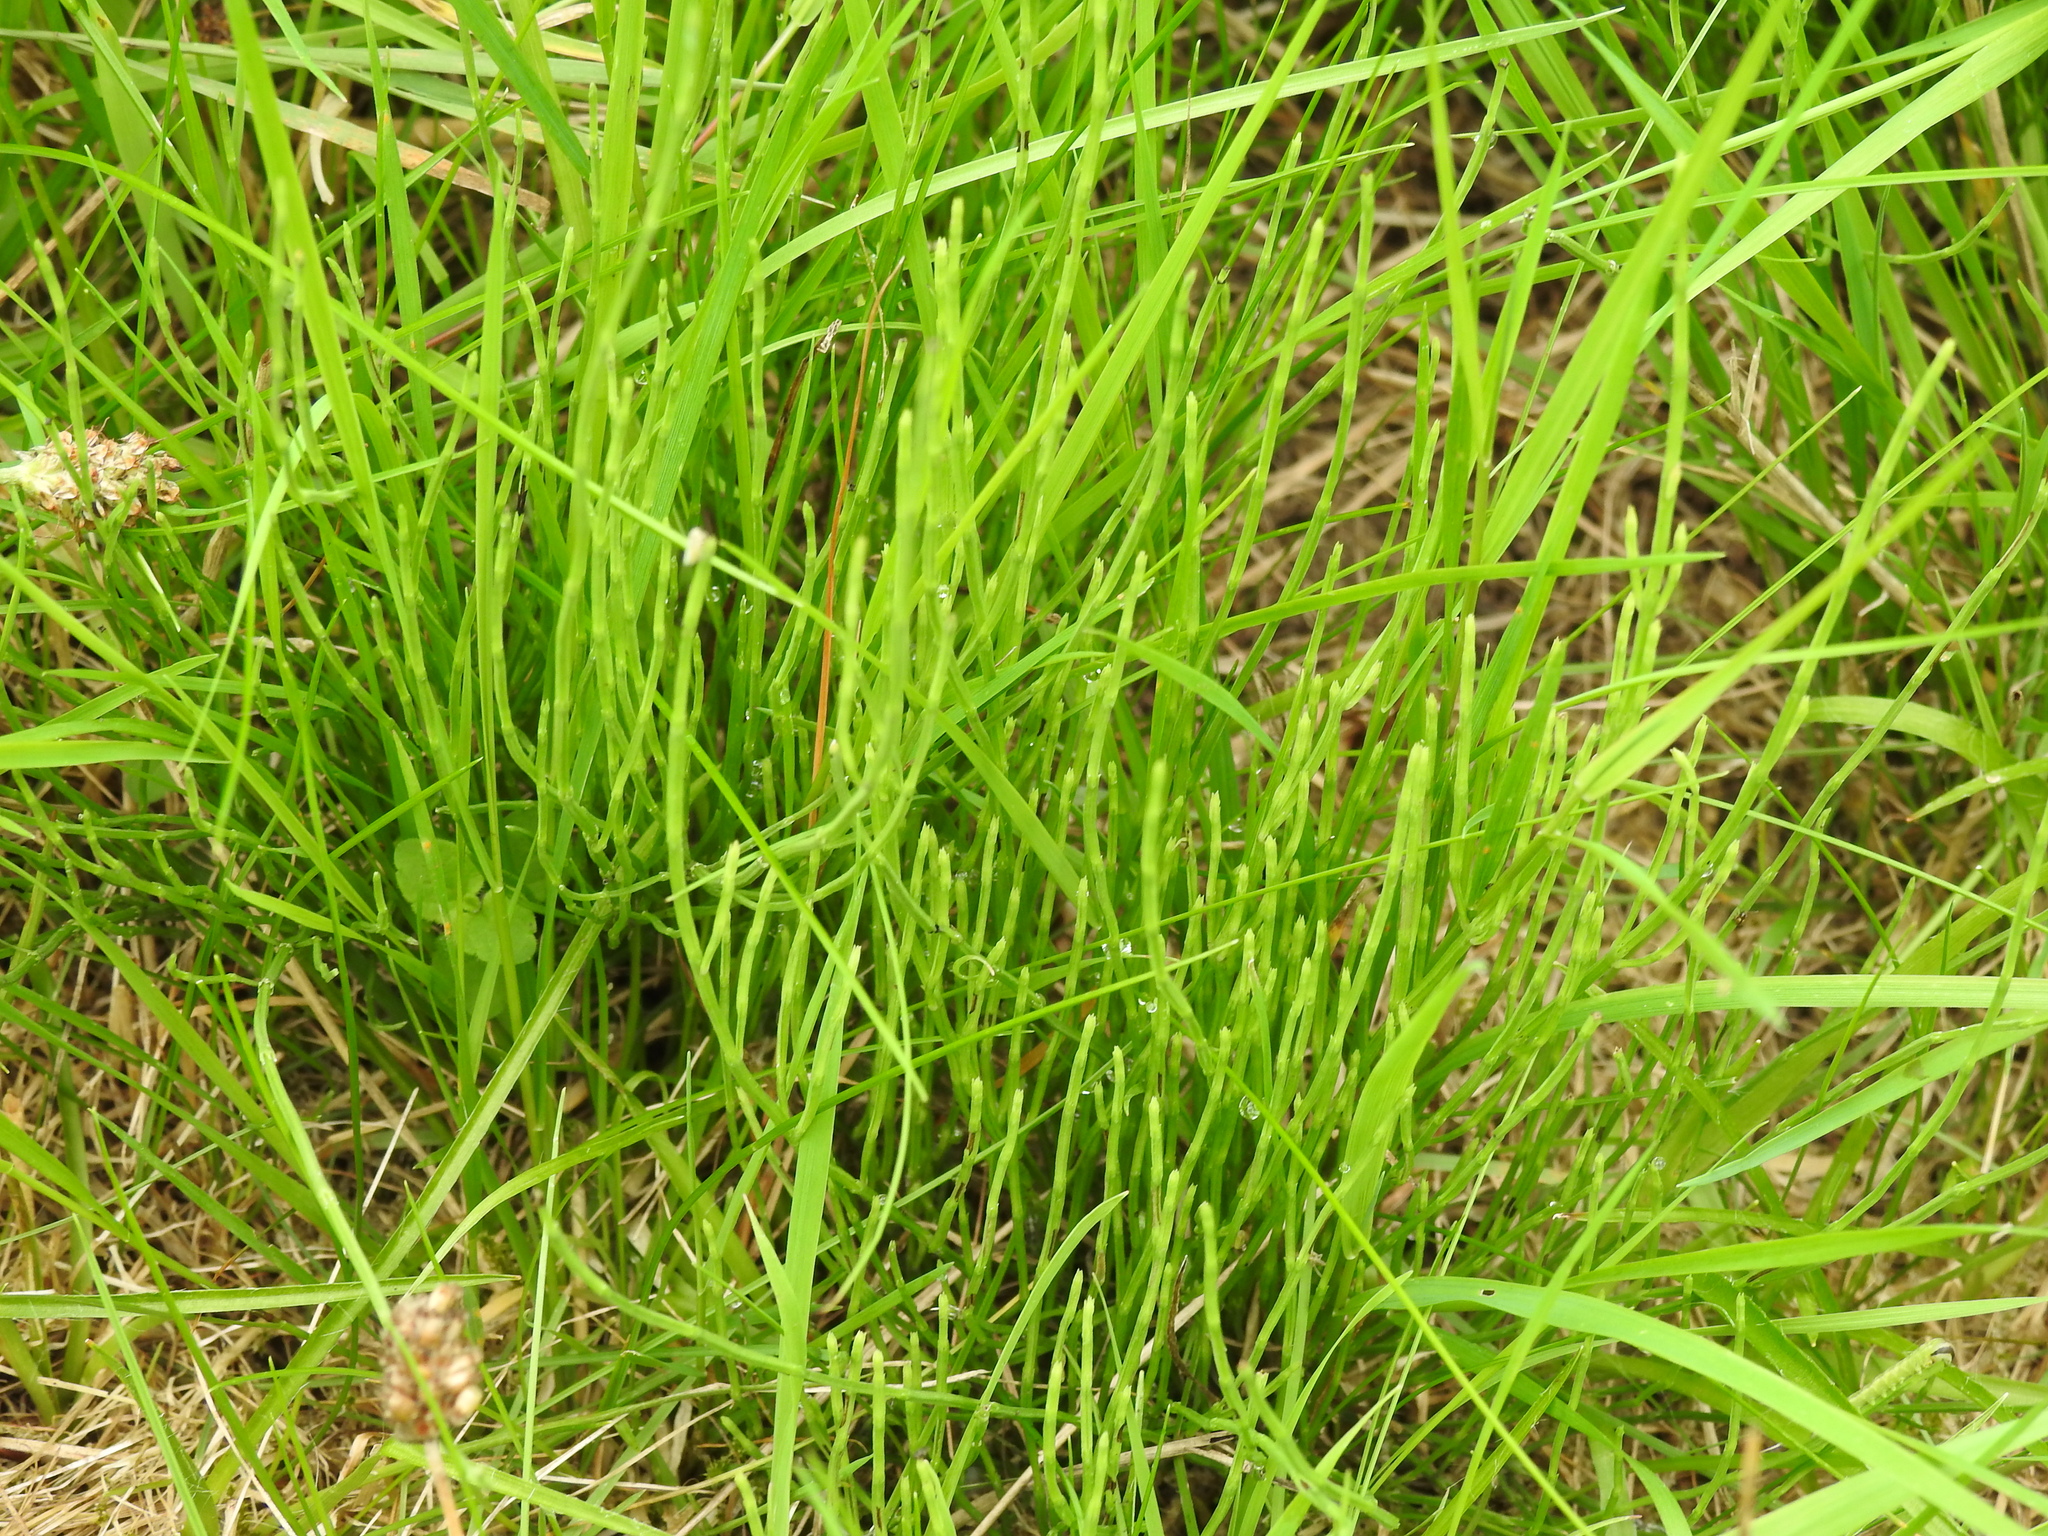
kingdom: Plantae
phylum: Tracheophyta
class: Polypodiopsida
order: Equisetales
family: Equisetaceae
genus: Equisetum
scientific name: Equisetum arvense
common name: Field horsetail
